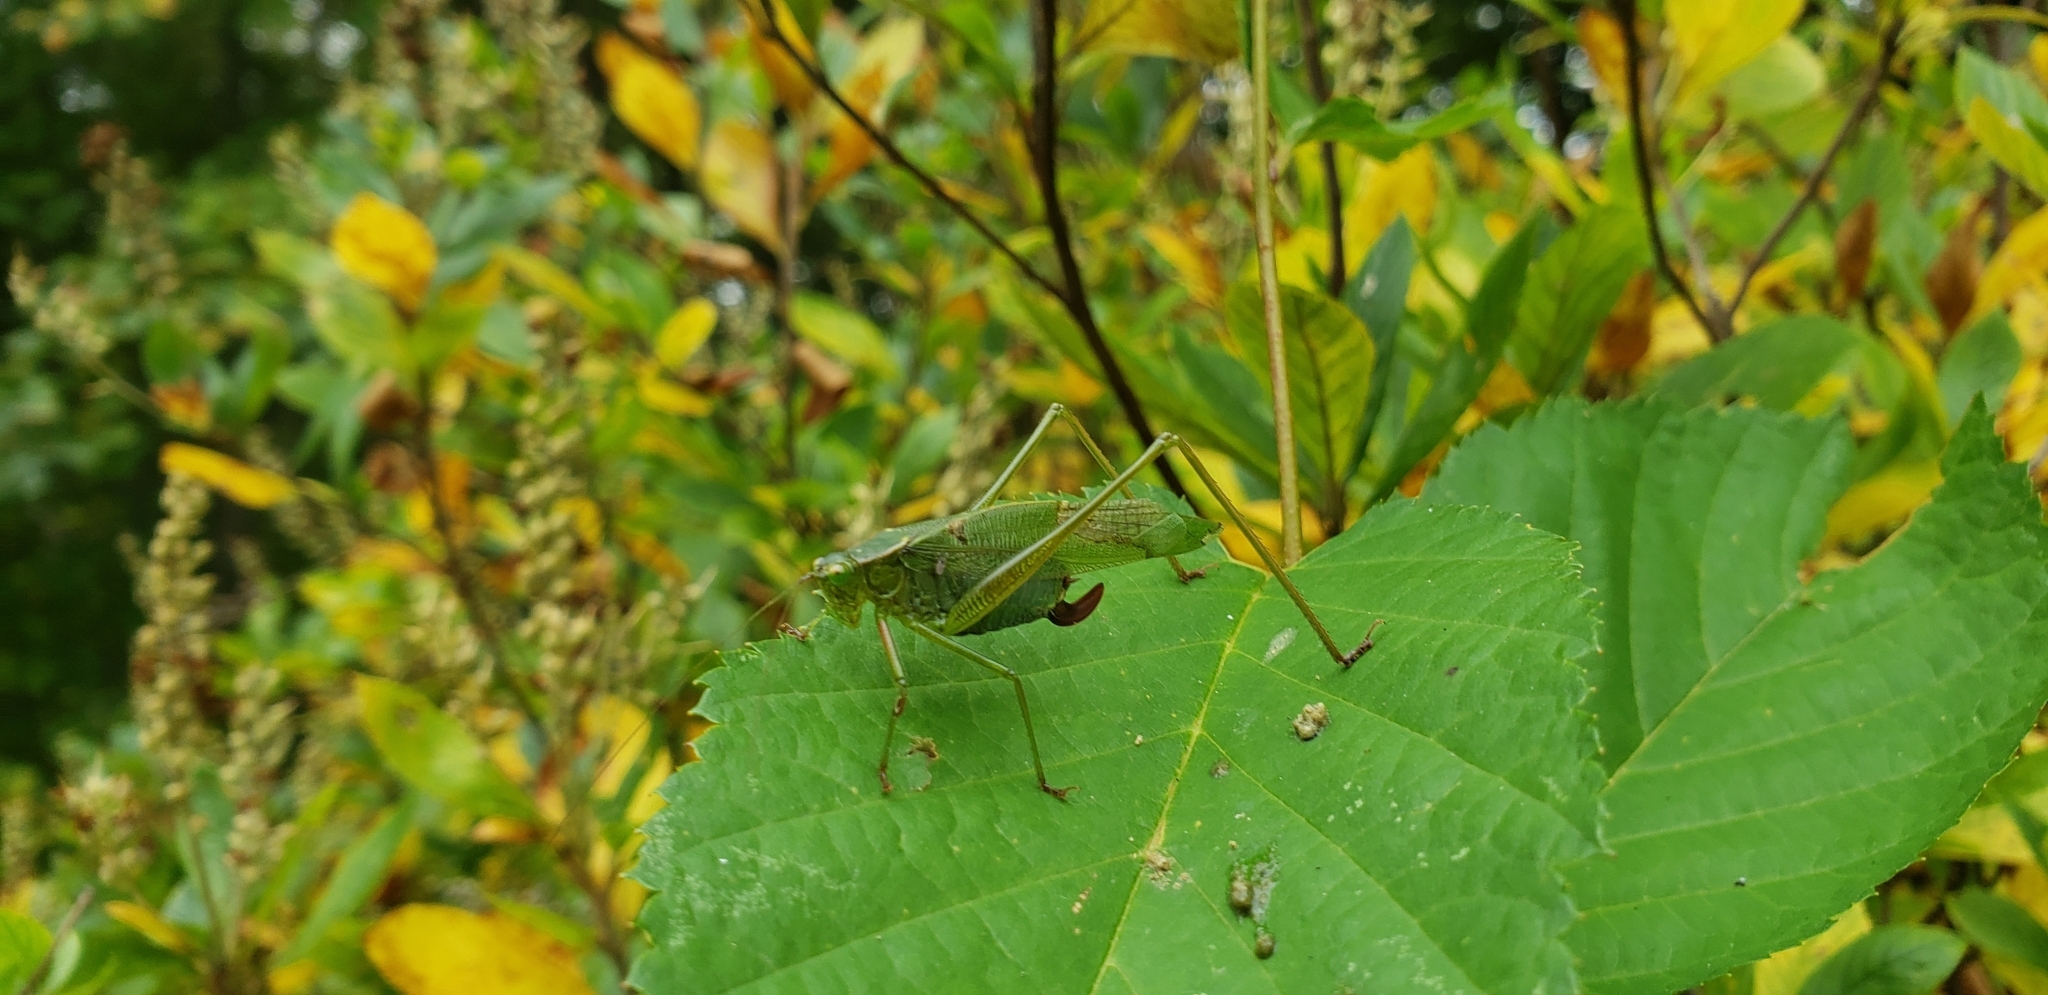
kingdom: Animalia
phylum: Arthropoda
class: Insecta
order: Orthoptera
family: Tettigoniidae
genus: Scudderia
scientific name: Scudderia furcata
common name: Fork-tailed bush katydid
